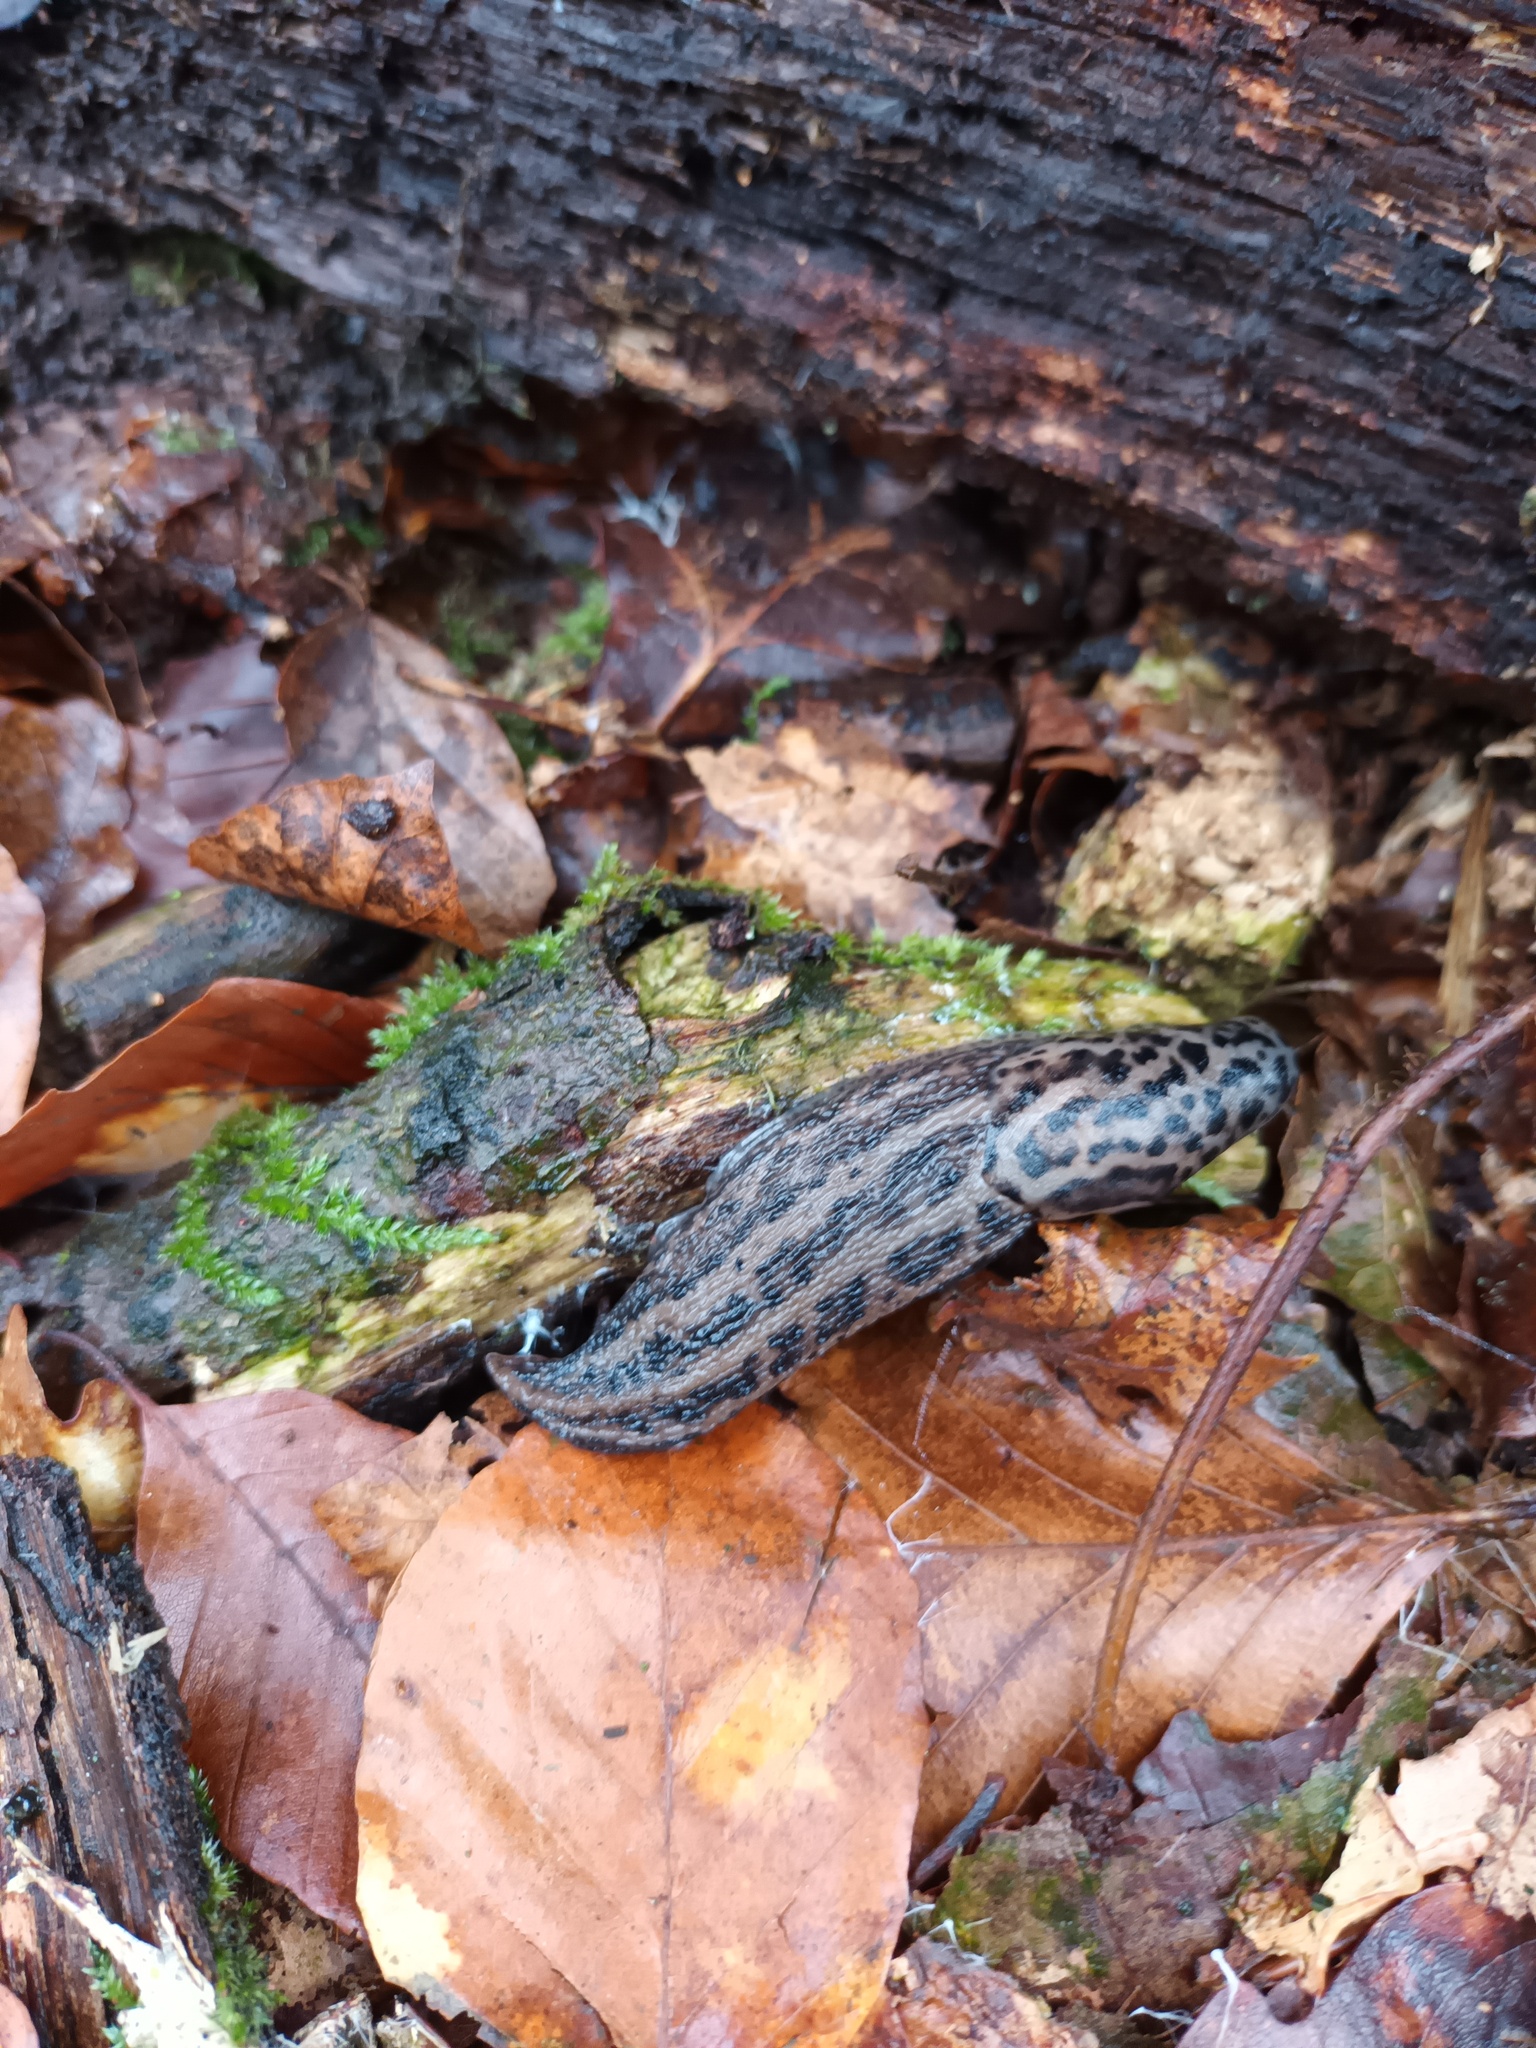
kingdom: Animalia
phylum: Mollusca
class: Gastropoda
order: Stylommatophora
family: Limacidae
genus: Limax
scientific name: Limax maximus
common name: Great grey slug
